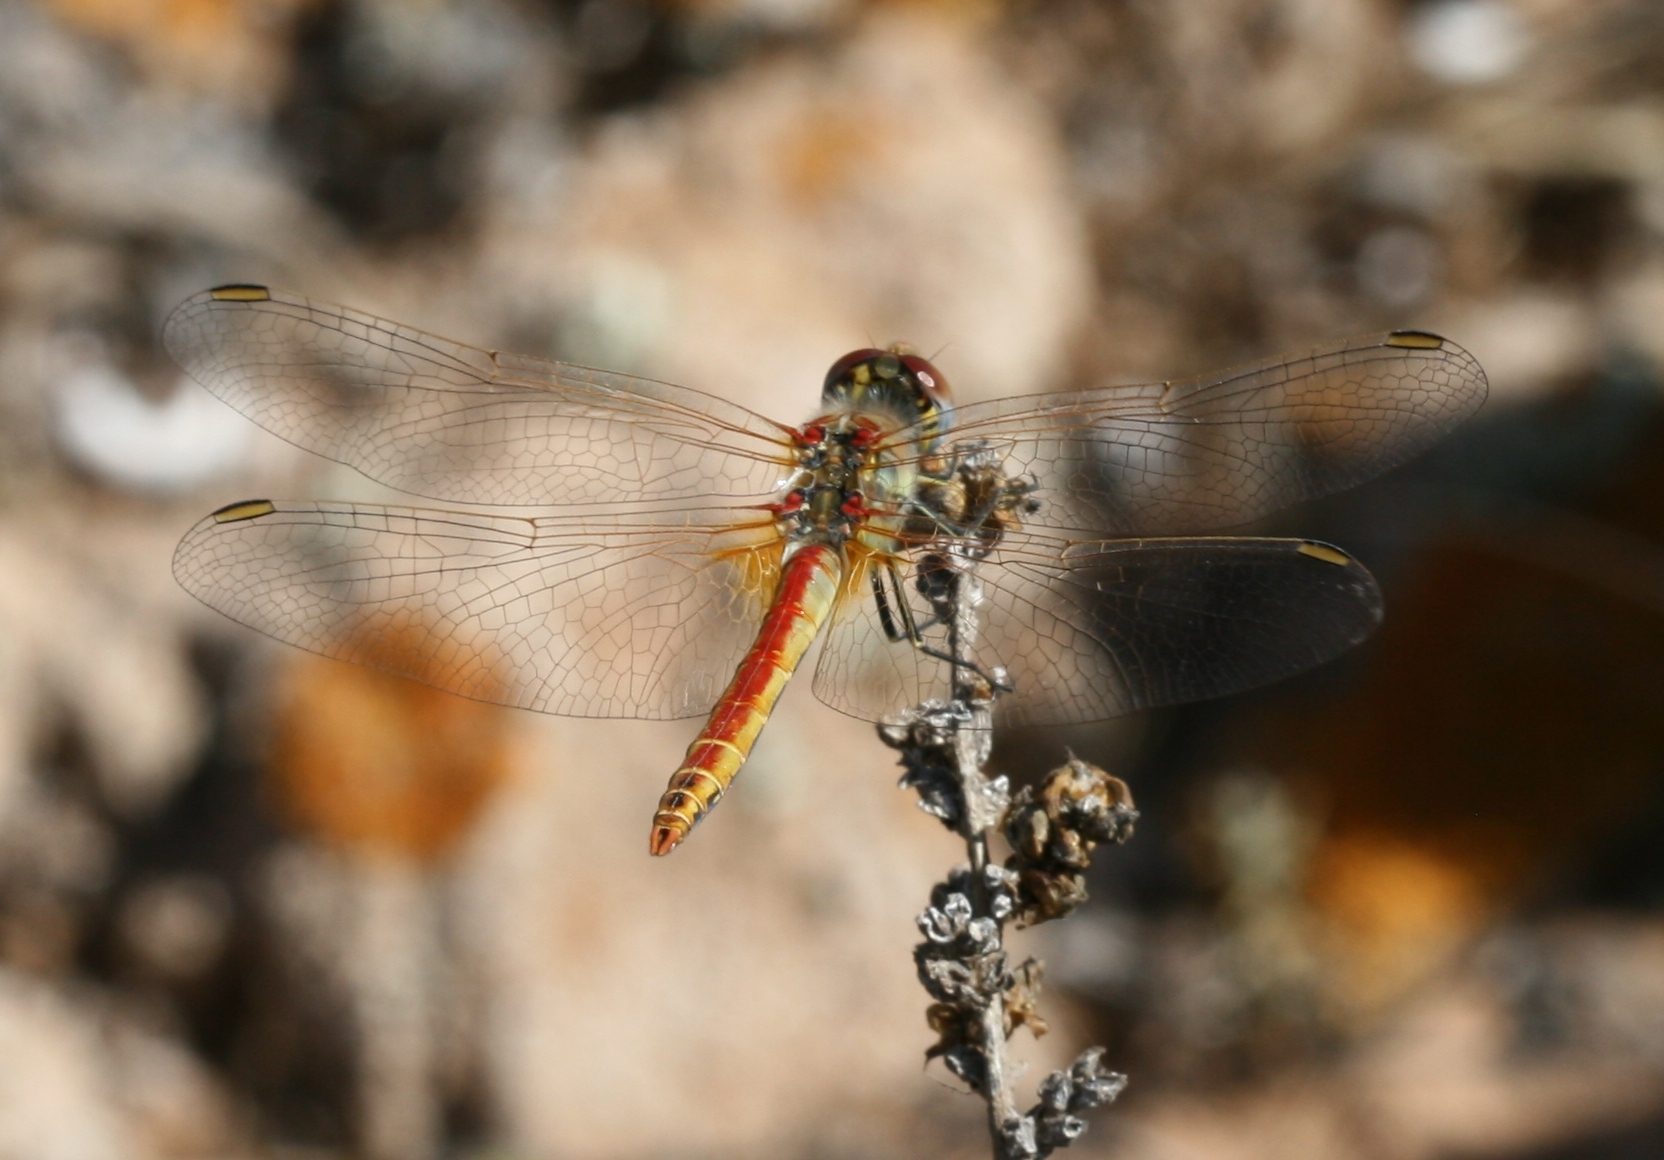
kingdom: Animalia
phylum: Arthropoda
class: Insecta
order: Odonata
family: Libellulidae
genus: Sympetrum
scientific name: Sympetrum fonscolombii
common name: Red-veined darter
